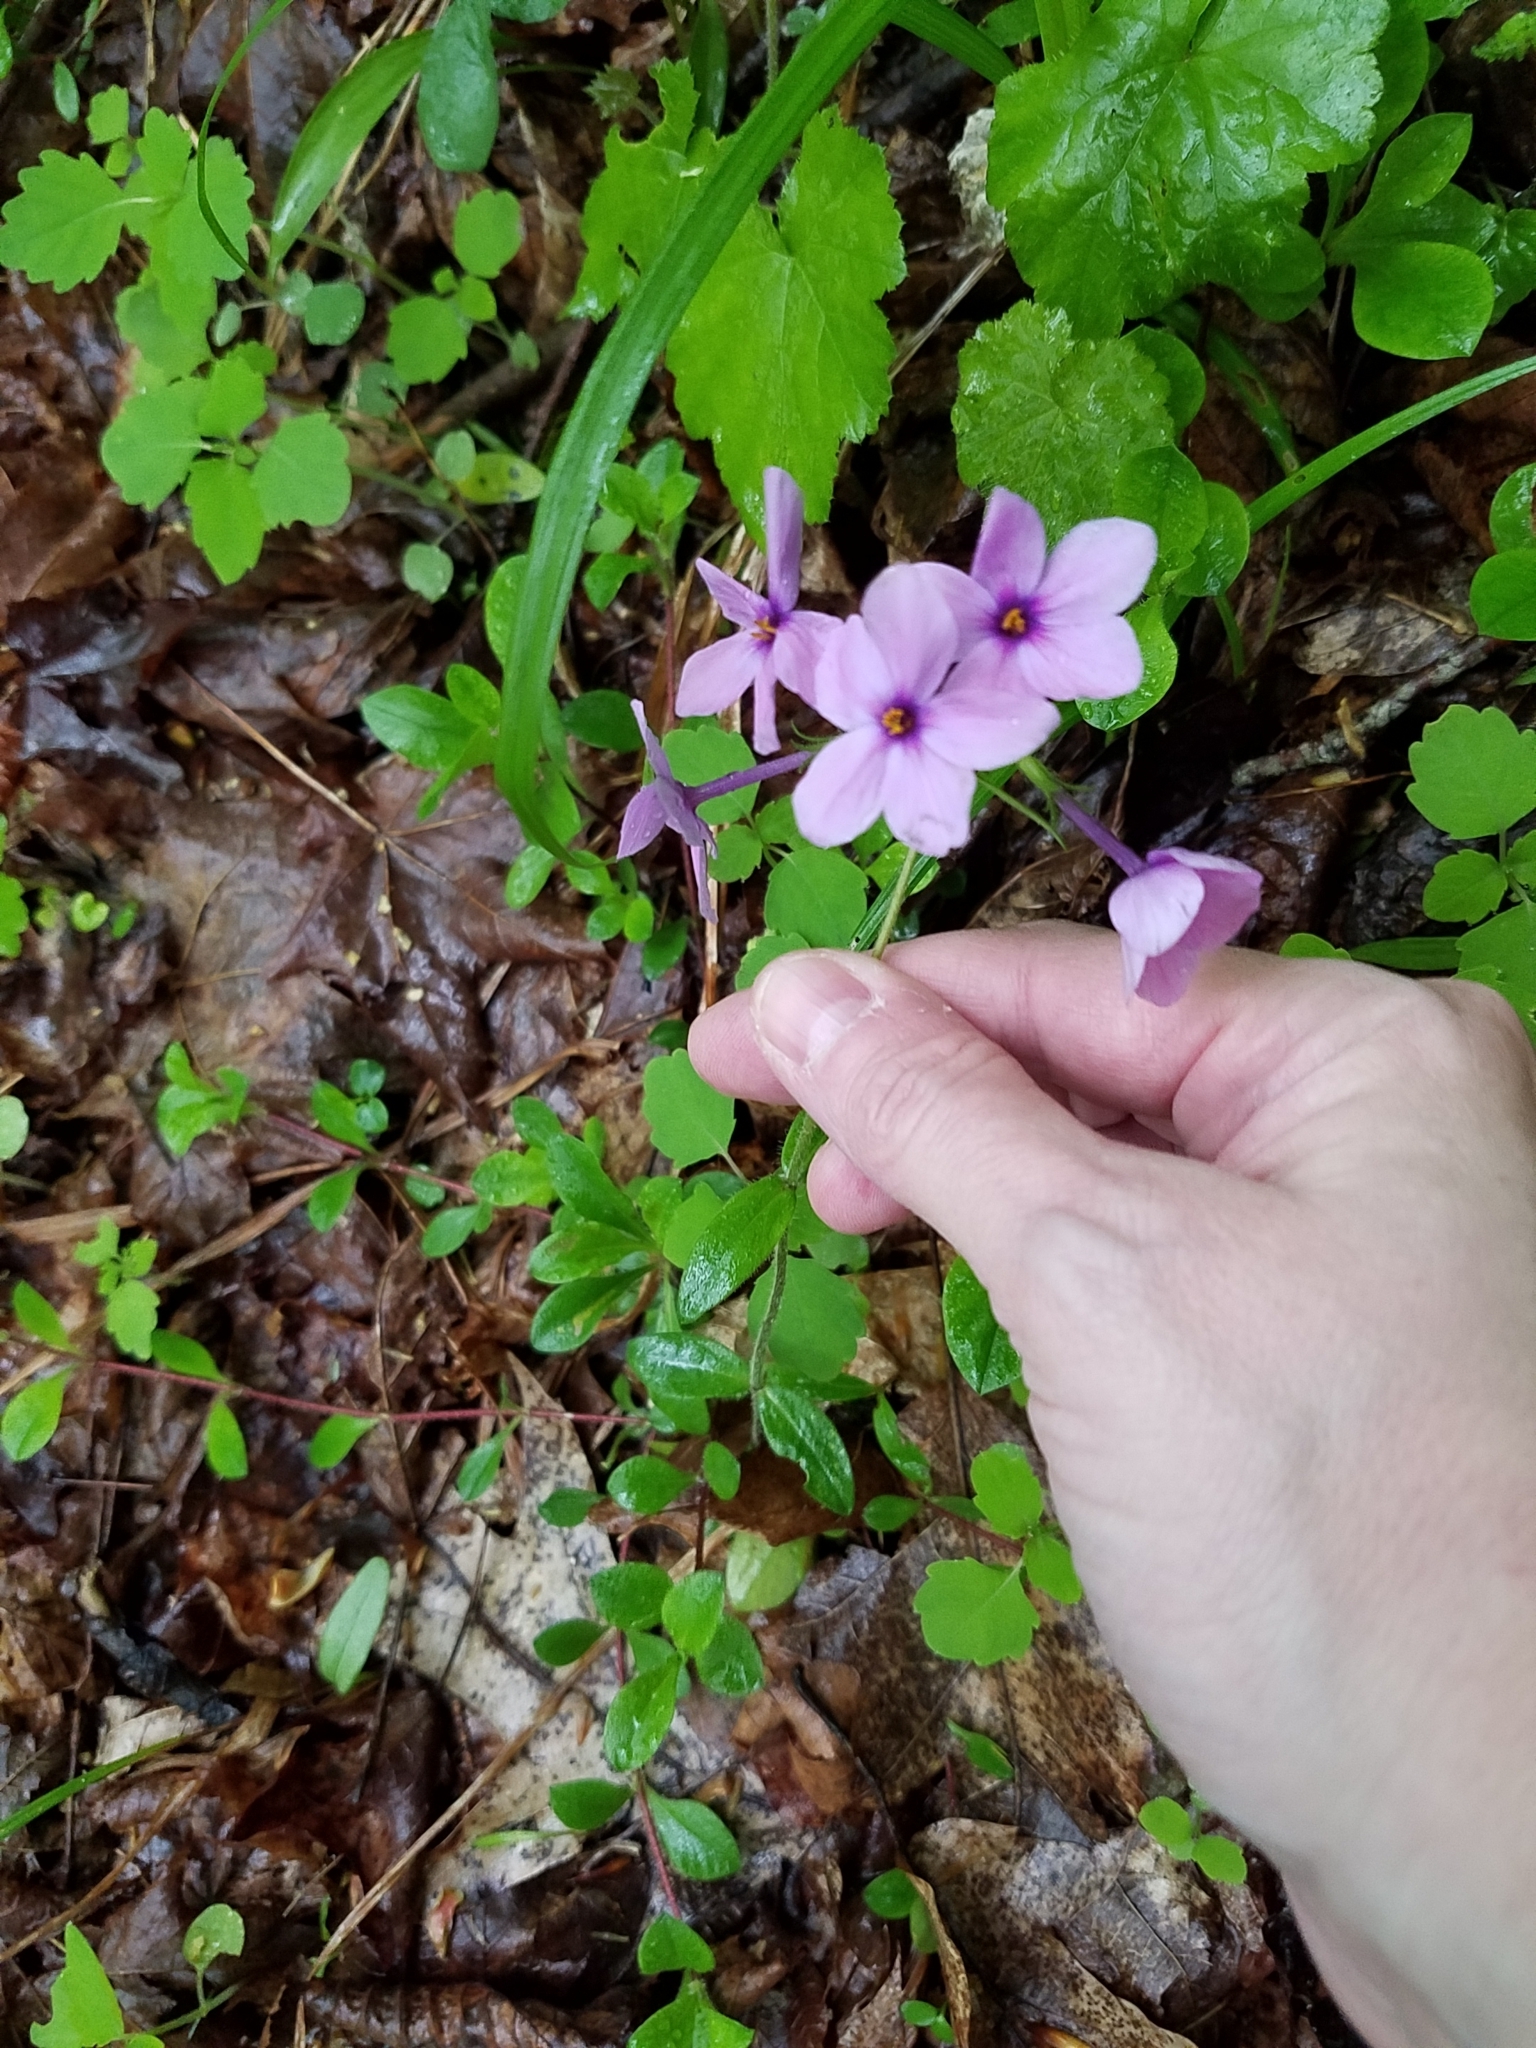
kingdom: Plantae
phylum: Tracheophyta
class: Magnoliopsida
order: Ericales
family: Polemoniaceae
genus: Phlox
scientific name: Phlox stolonifera
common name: Creeping phlox
